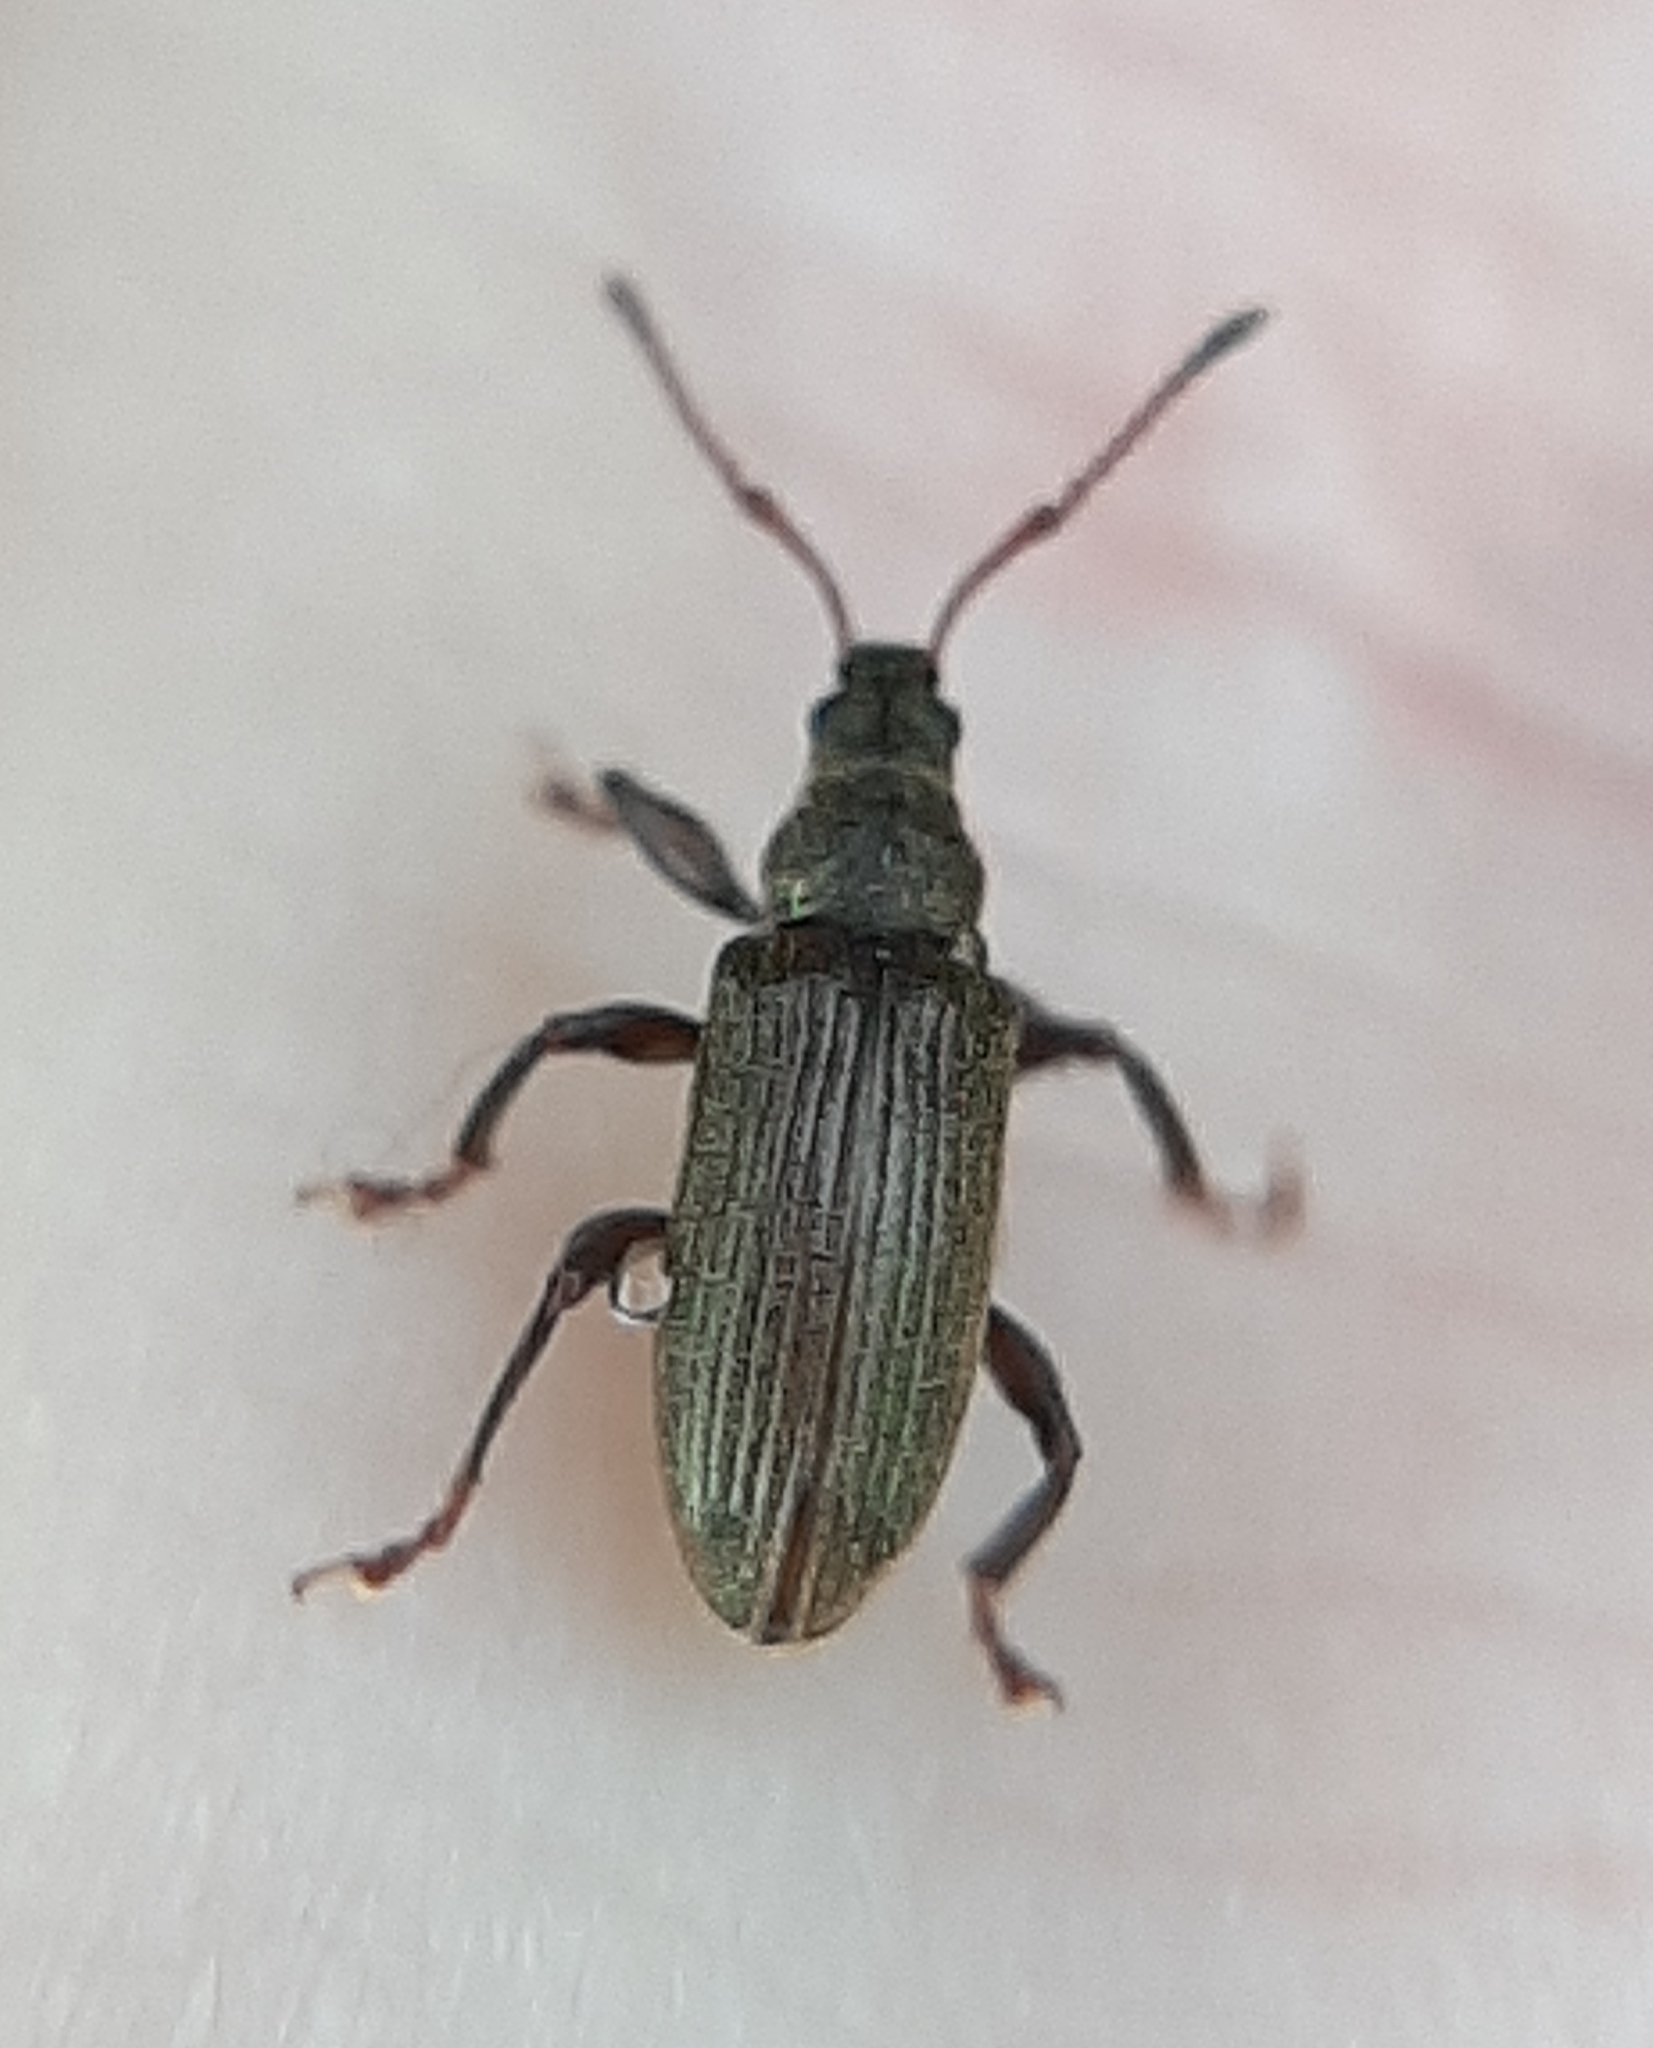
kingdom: Animalia
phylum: Arthropoda
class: Insecta
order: Coleoptera
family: Curculionidae
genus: Parascythopus
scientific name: Parascythopus intrusus
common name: Weevil
